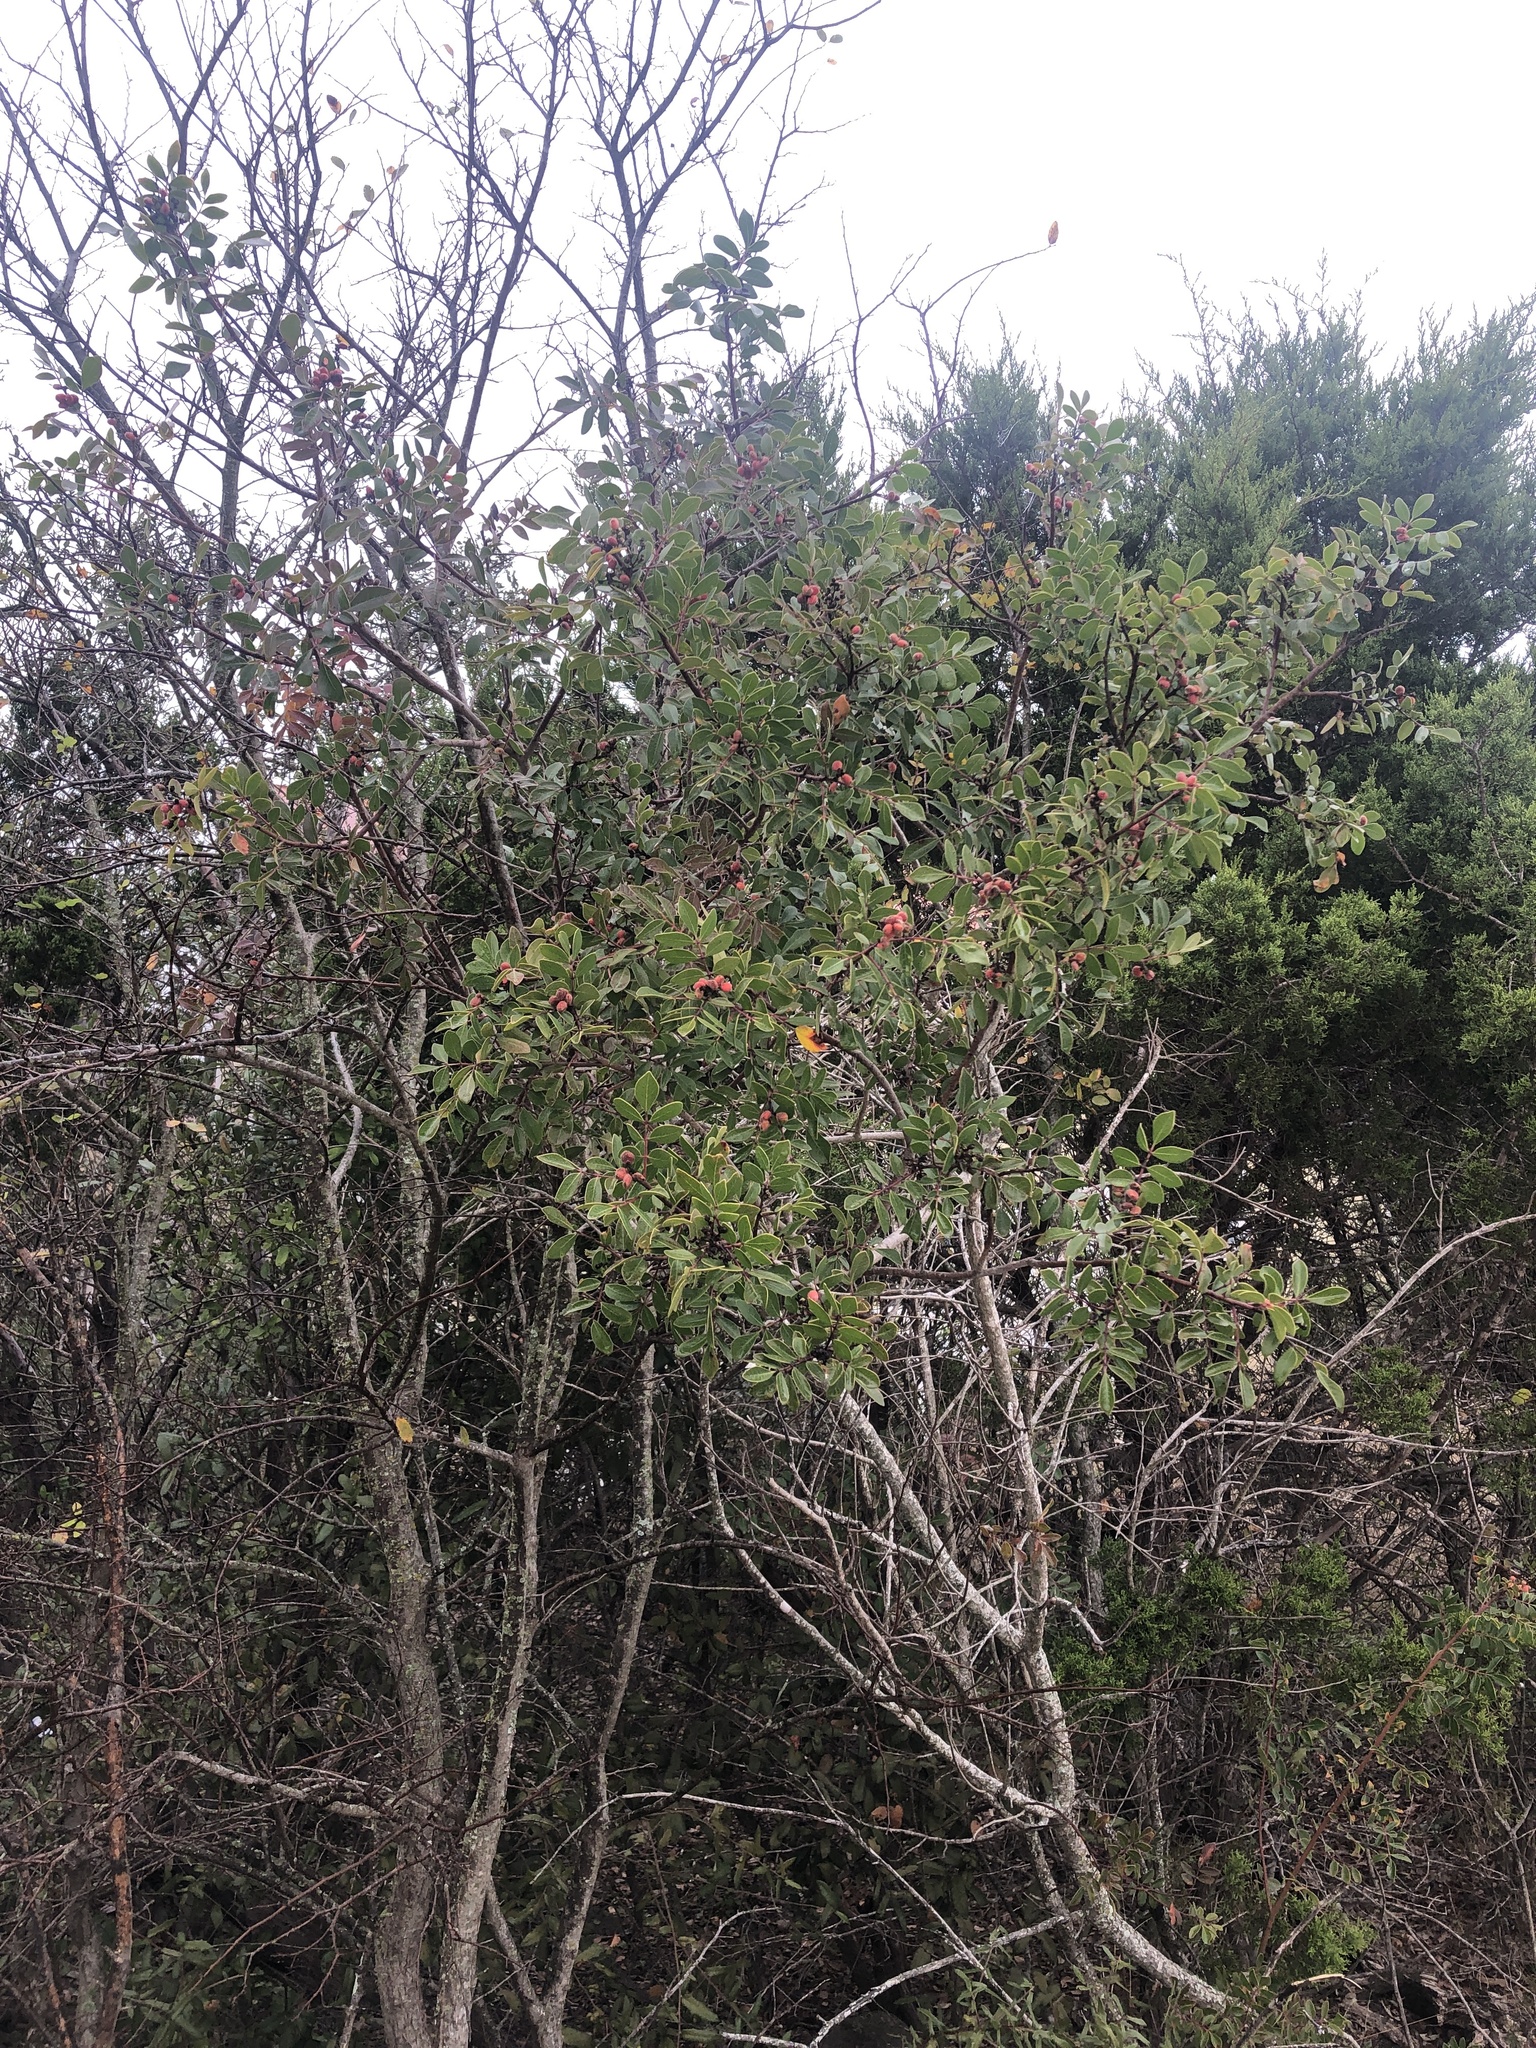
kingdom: Plantae
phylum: Tracheophyta
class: Magnoliopsida
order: Sapindales
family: Anacardiaceae
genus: Rhus
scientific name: Rhus virens
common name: Evergreen sumac
